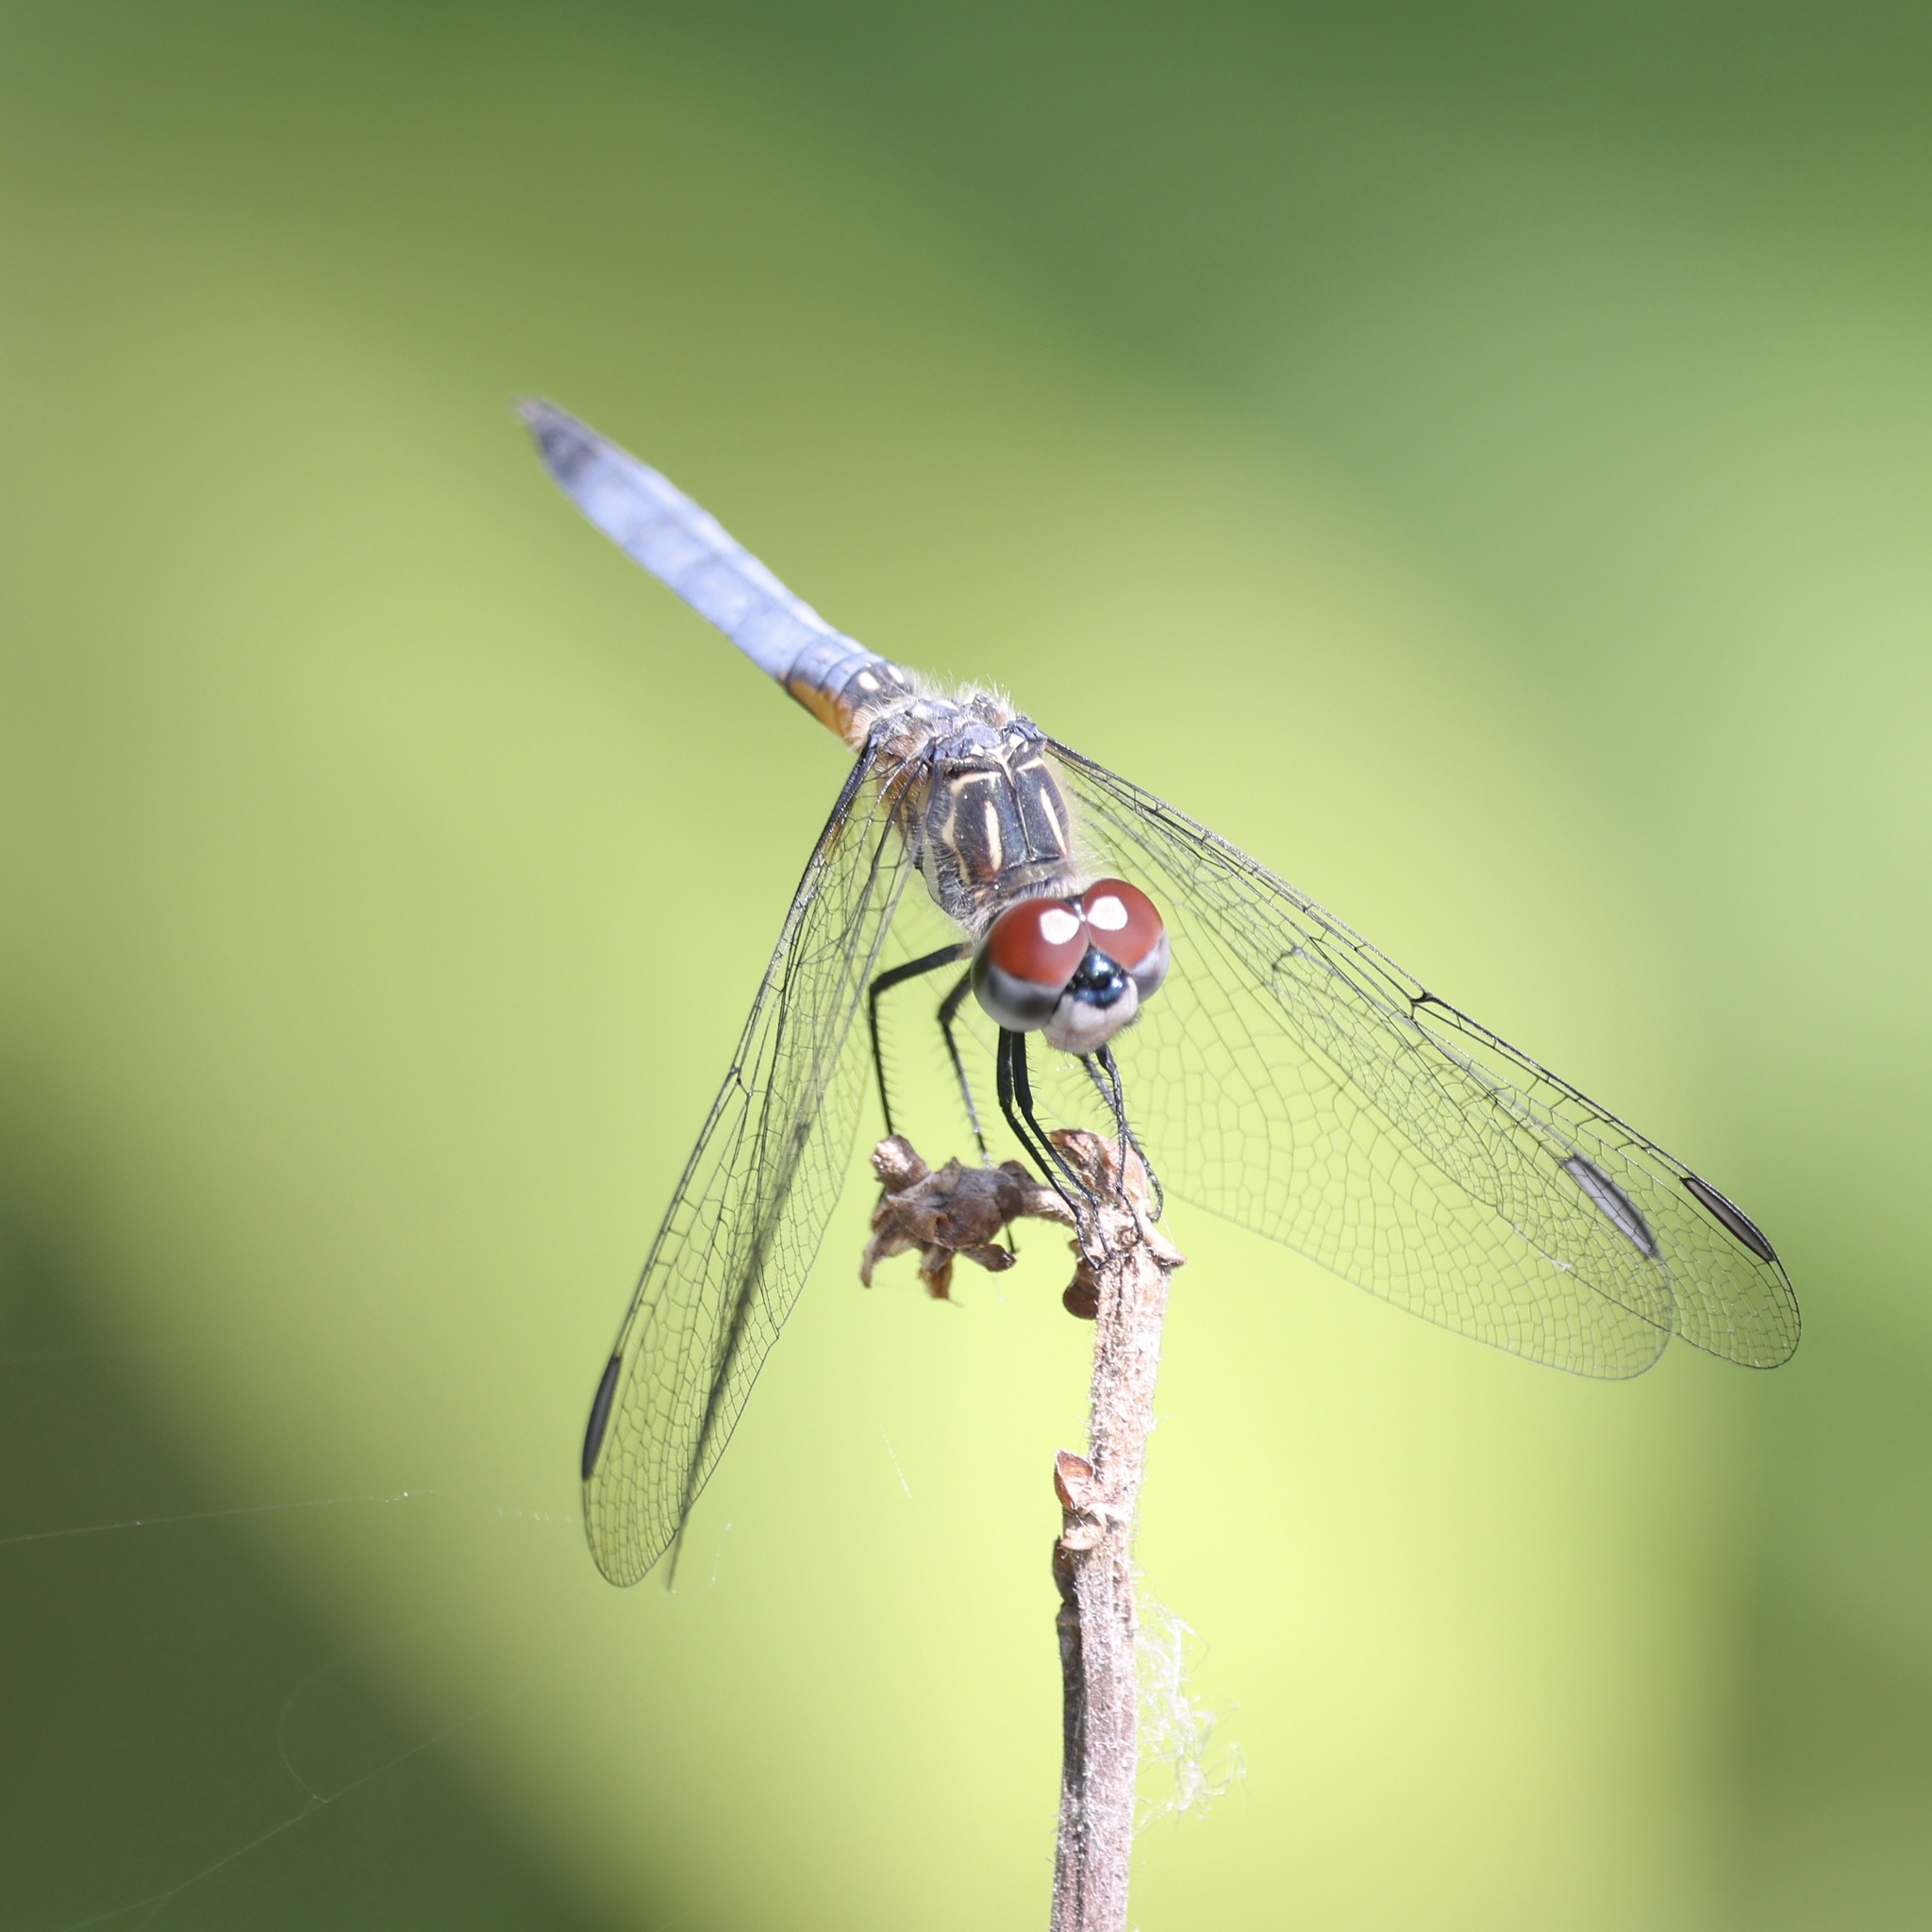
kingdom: Animalia
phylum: Arthropoda
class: Insecta
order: Odonata
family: Libellulidae
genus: Pachydiplax
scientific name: Pachydiplax longipennis
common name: Blue dasher
